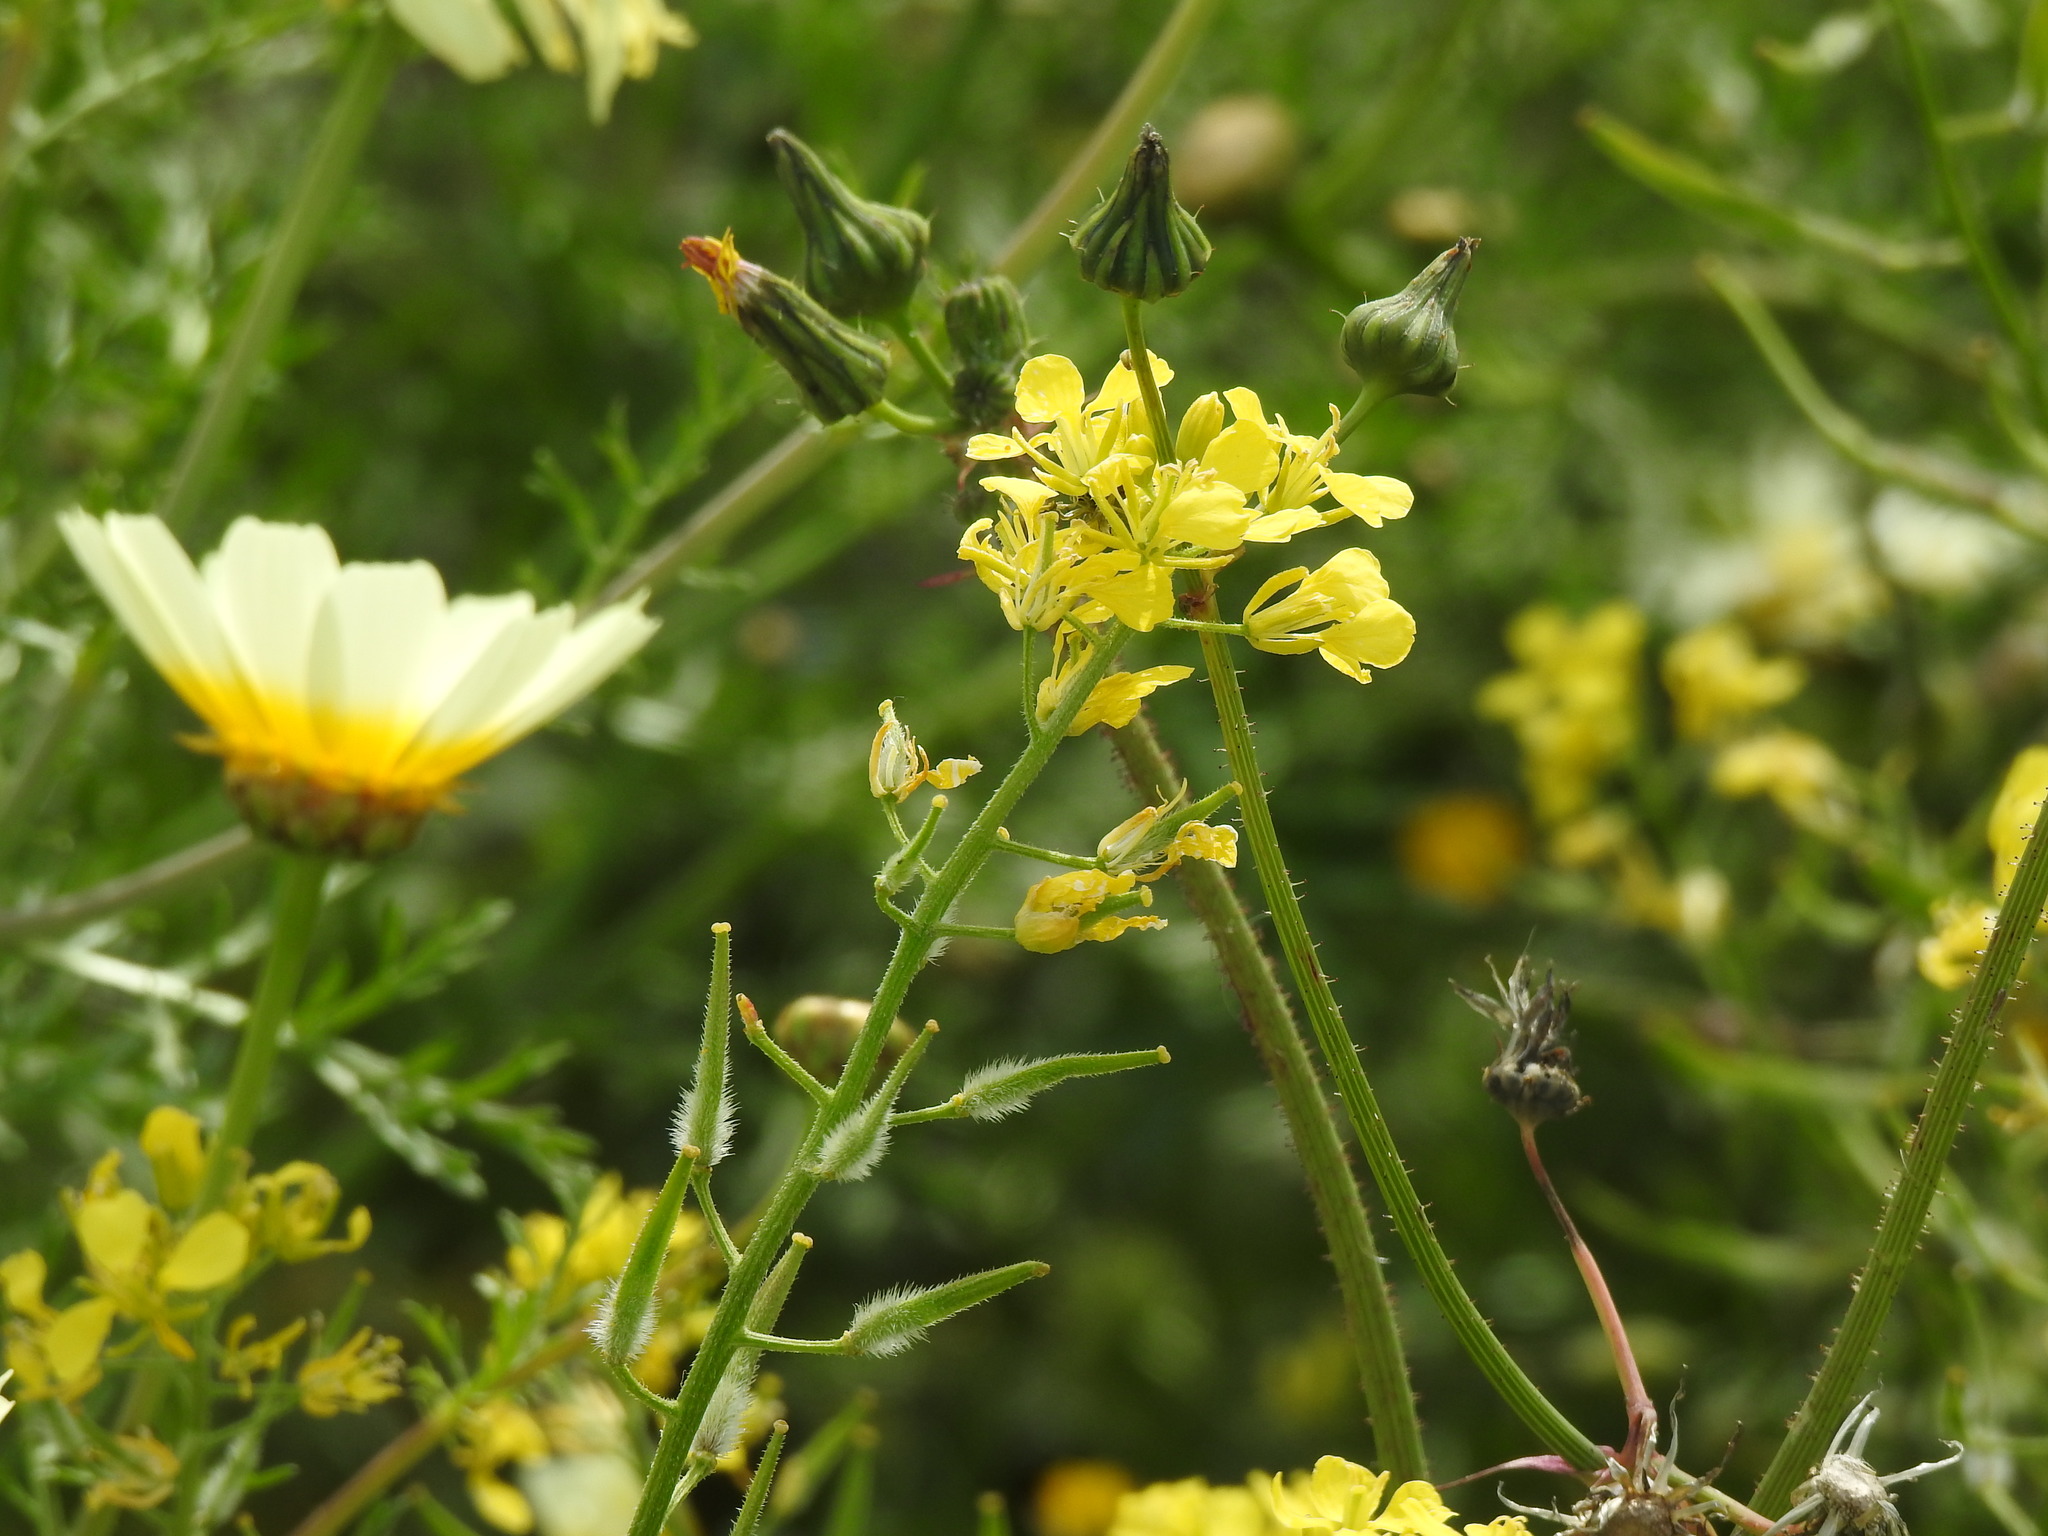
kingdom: Plantae
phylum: Tracheophyta
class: Magnoliopsida
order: Brassicales
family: Brassicaceae
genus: Sinapis
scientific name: Sinapis alba
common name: White mustard
